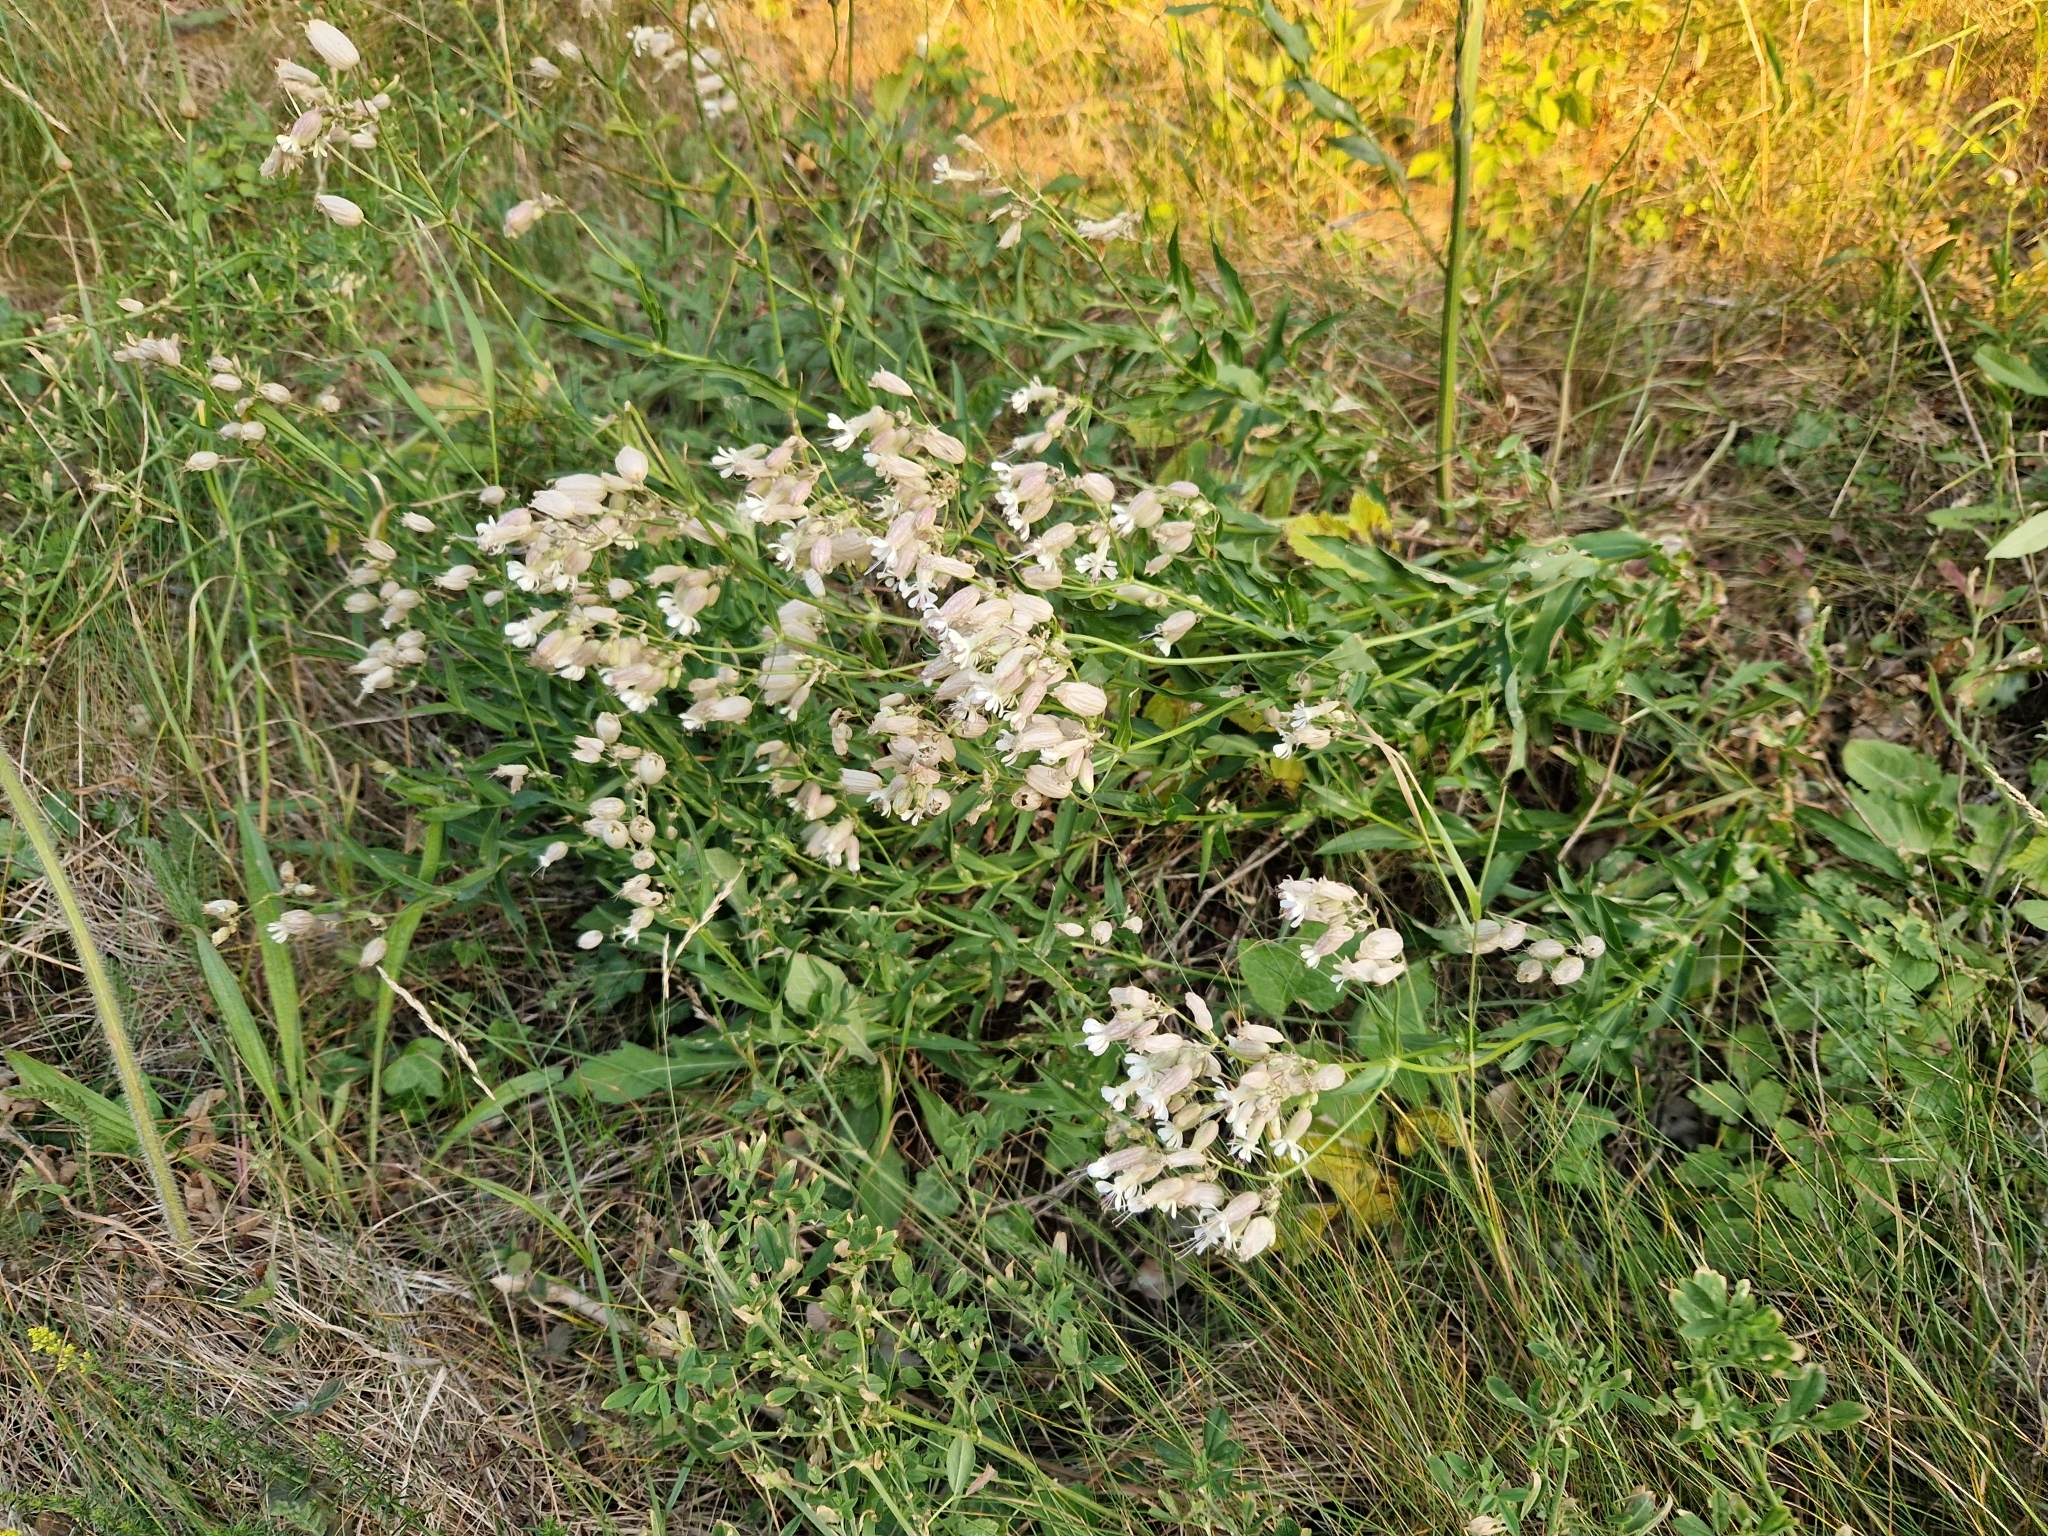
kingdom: Plantae
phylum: Tracheophyta
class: Magnoliopsida
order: Caryophyllales
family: Caryophyllaceae
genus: Silene
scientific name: Silene vulgaris
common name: Bladder campion
